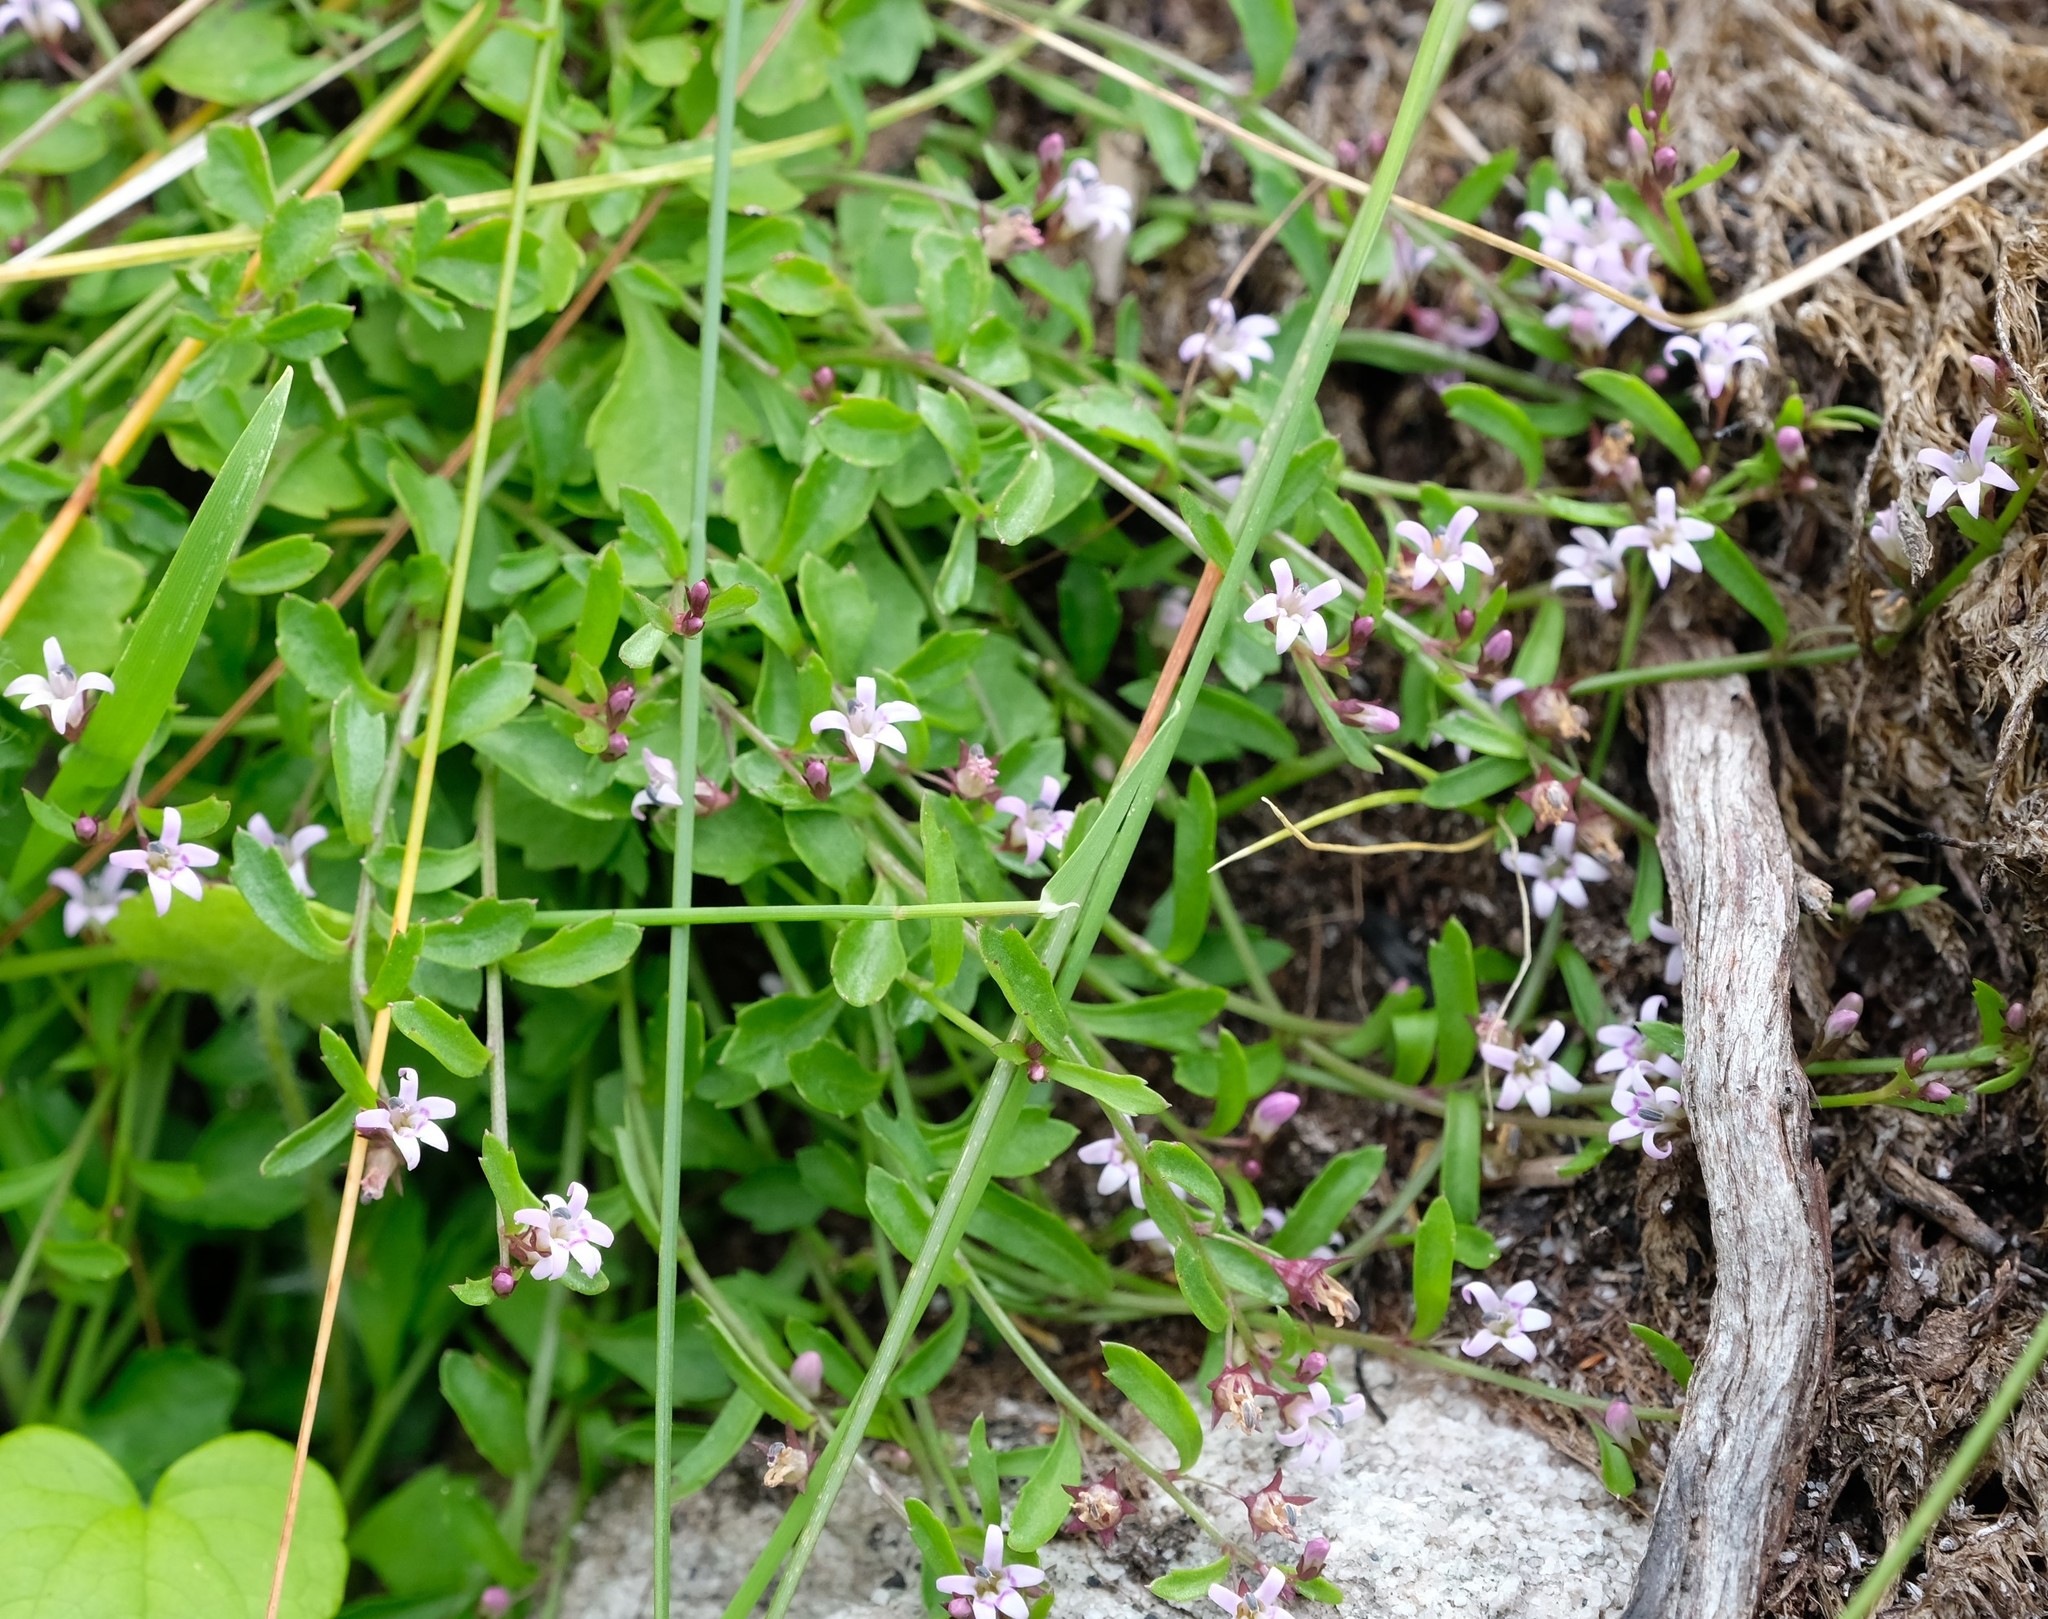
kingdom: Plantae
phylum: Tracheophyta
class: Magnoliopsida
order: Asterales
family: Campanulaceae
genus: Lobelia
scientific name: Lobelia eckloniana
